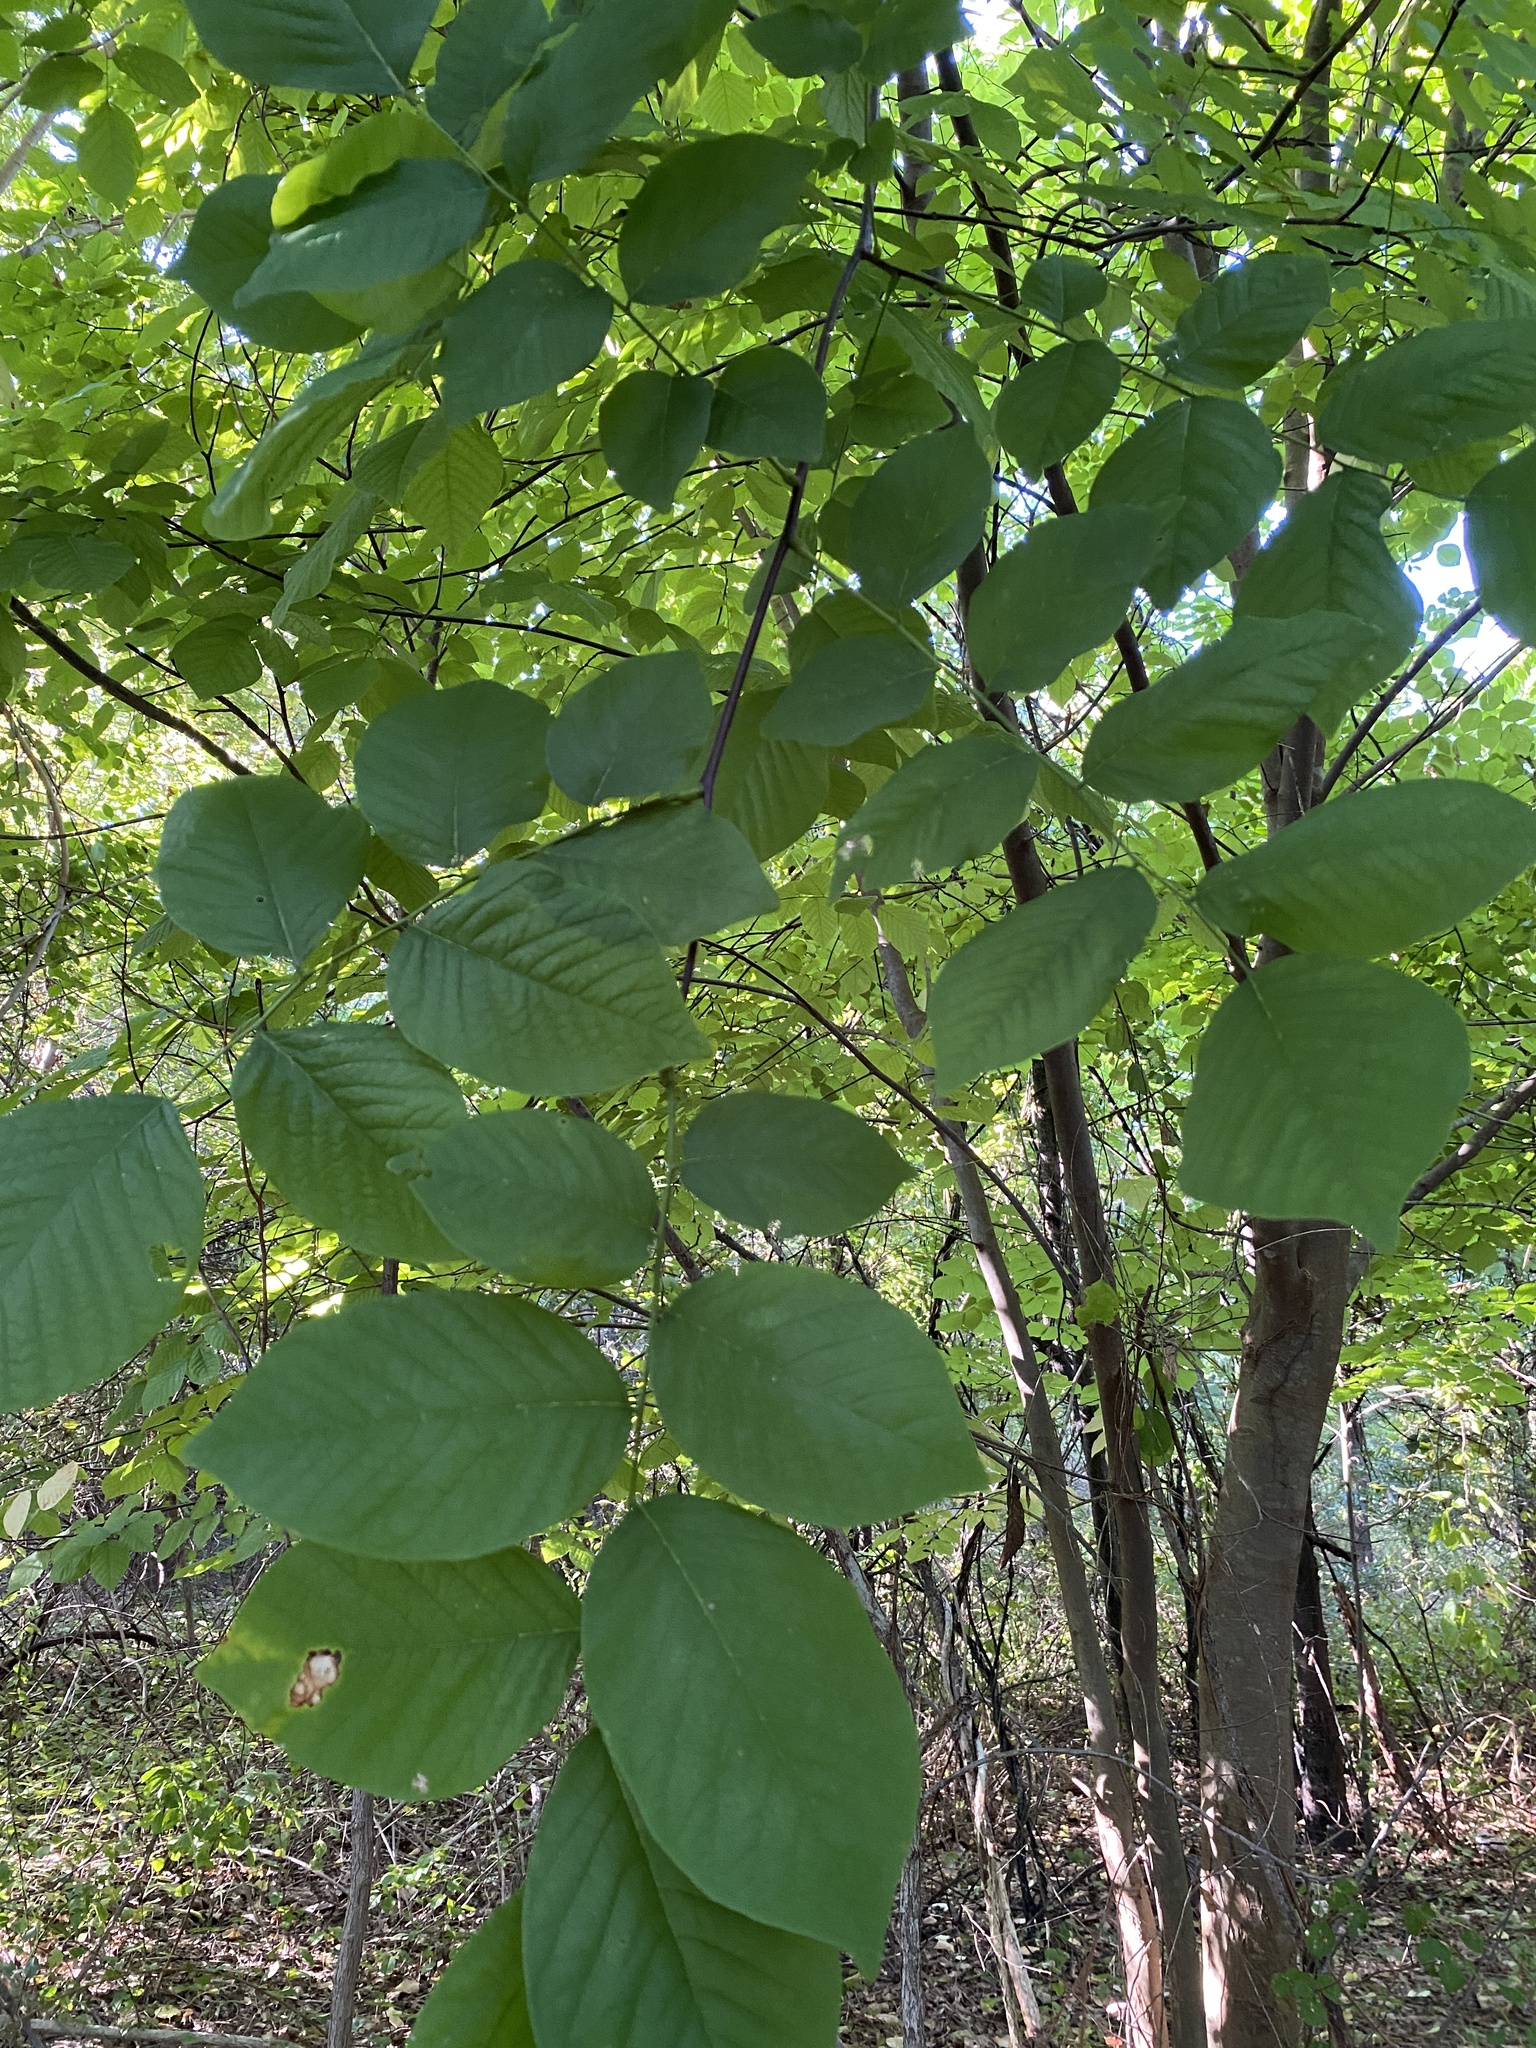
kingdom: Plantae
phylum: Tracheophyta
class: Magnoliopsida
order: Fabales
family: Fabaceae
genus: Cladrastis
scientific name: Cladrastis kentukea
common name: Kentucky yellow-wood
